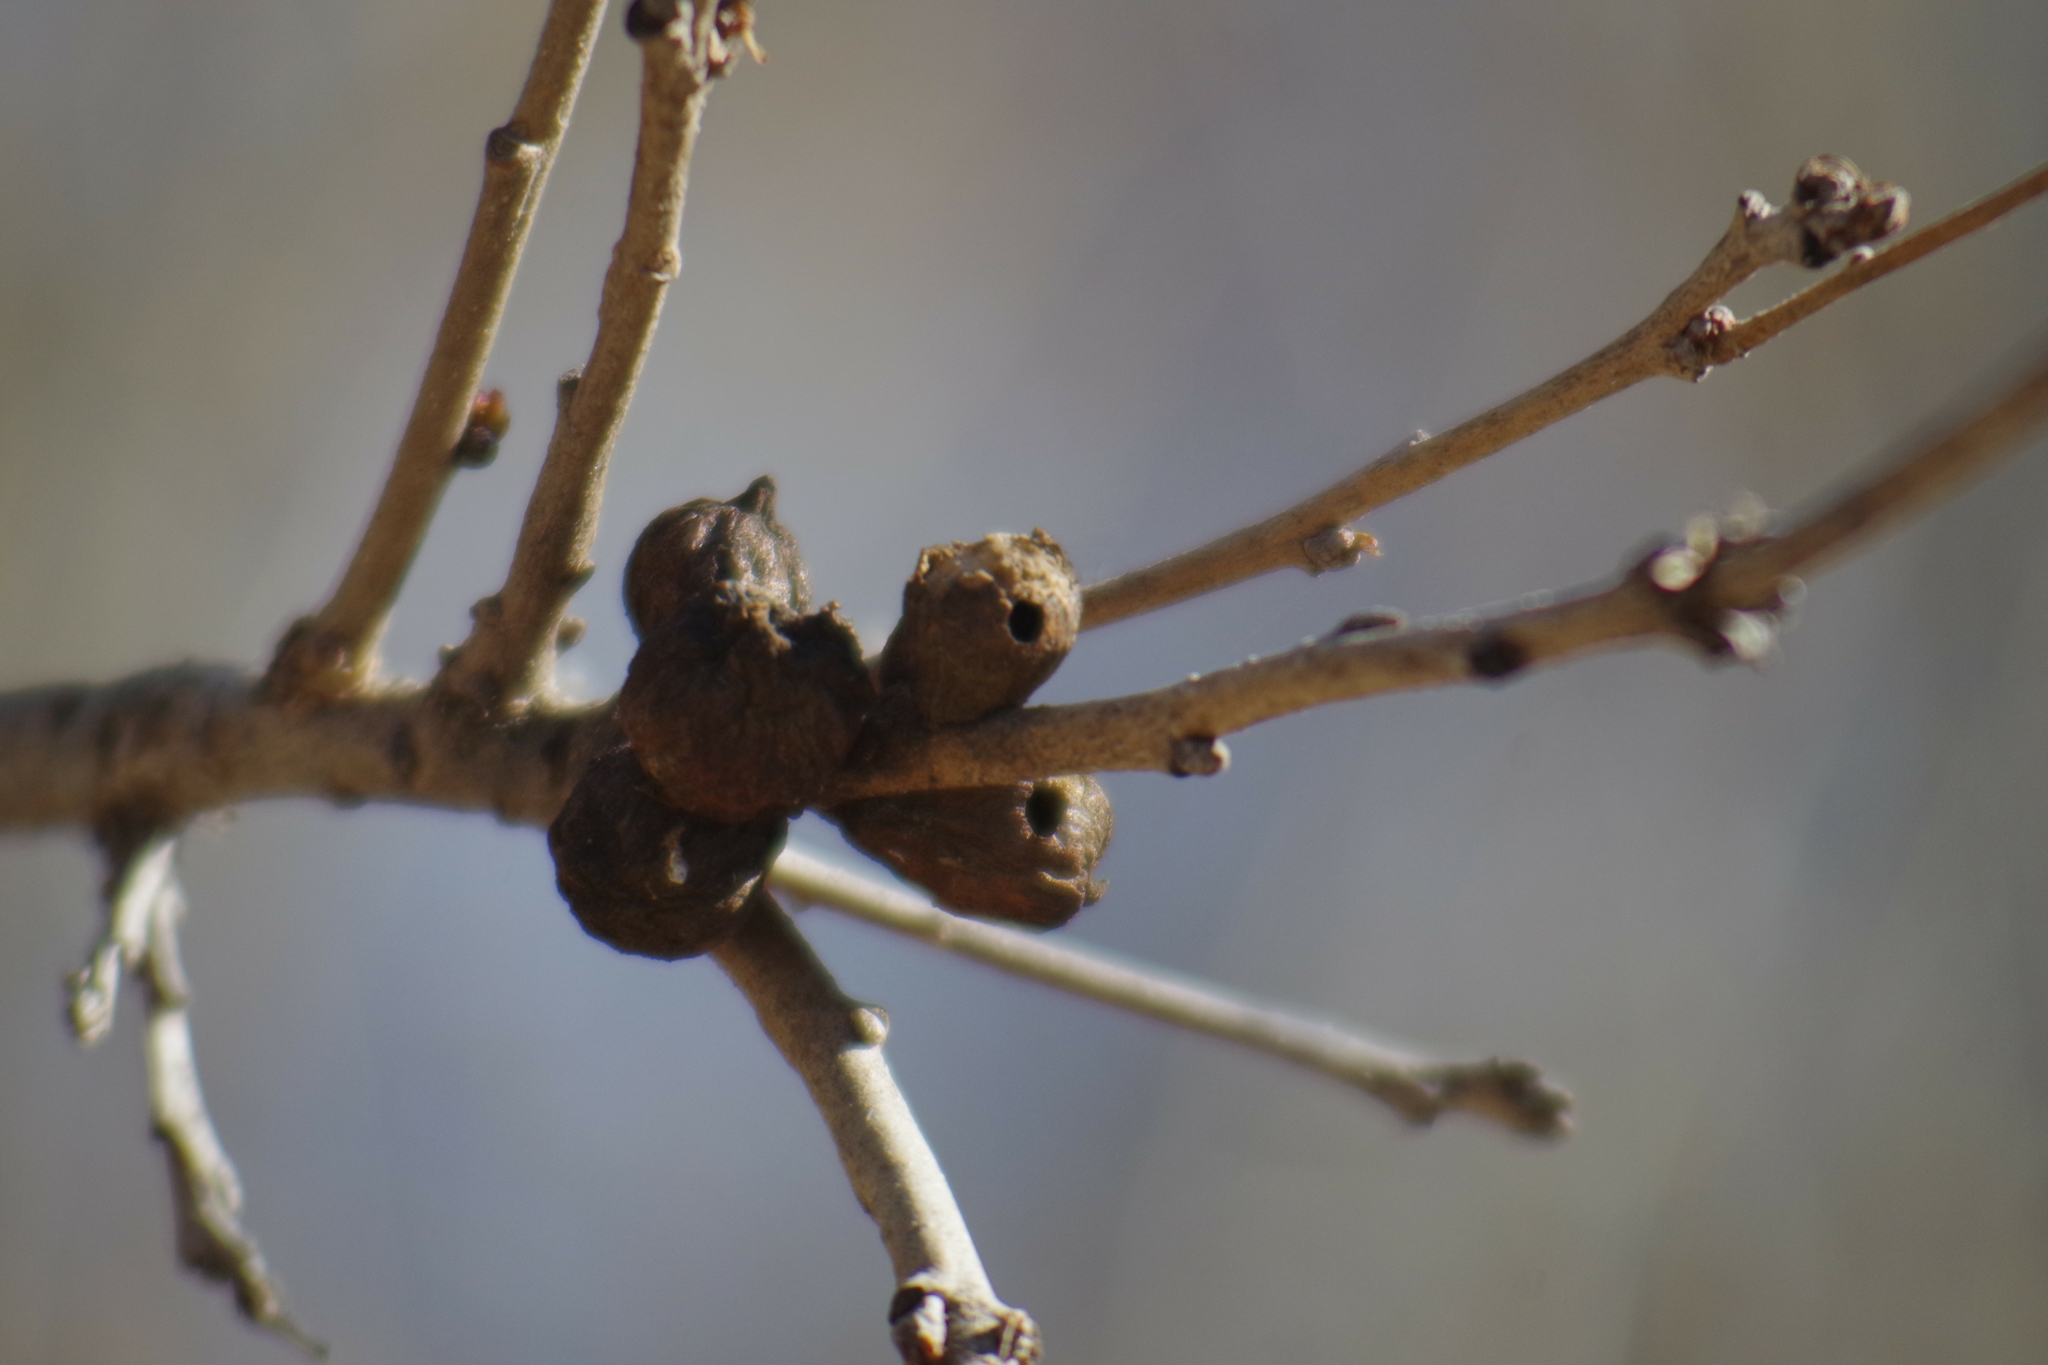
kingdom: Animalia
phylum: Arthropoda
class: Insecta
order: Hymenoptera
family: Cynipidae
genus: Disholcaspis
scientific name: Disholcaspis
